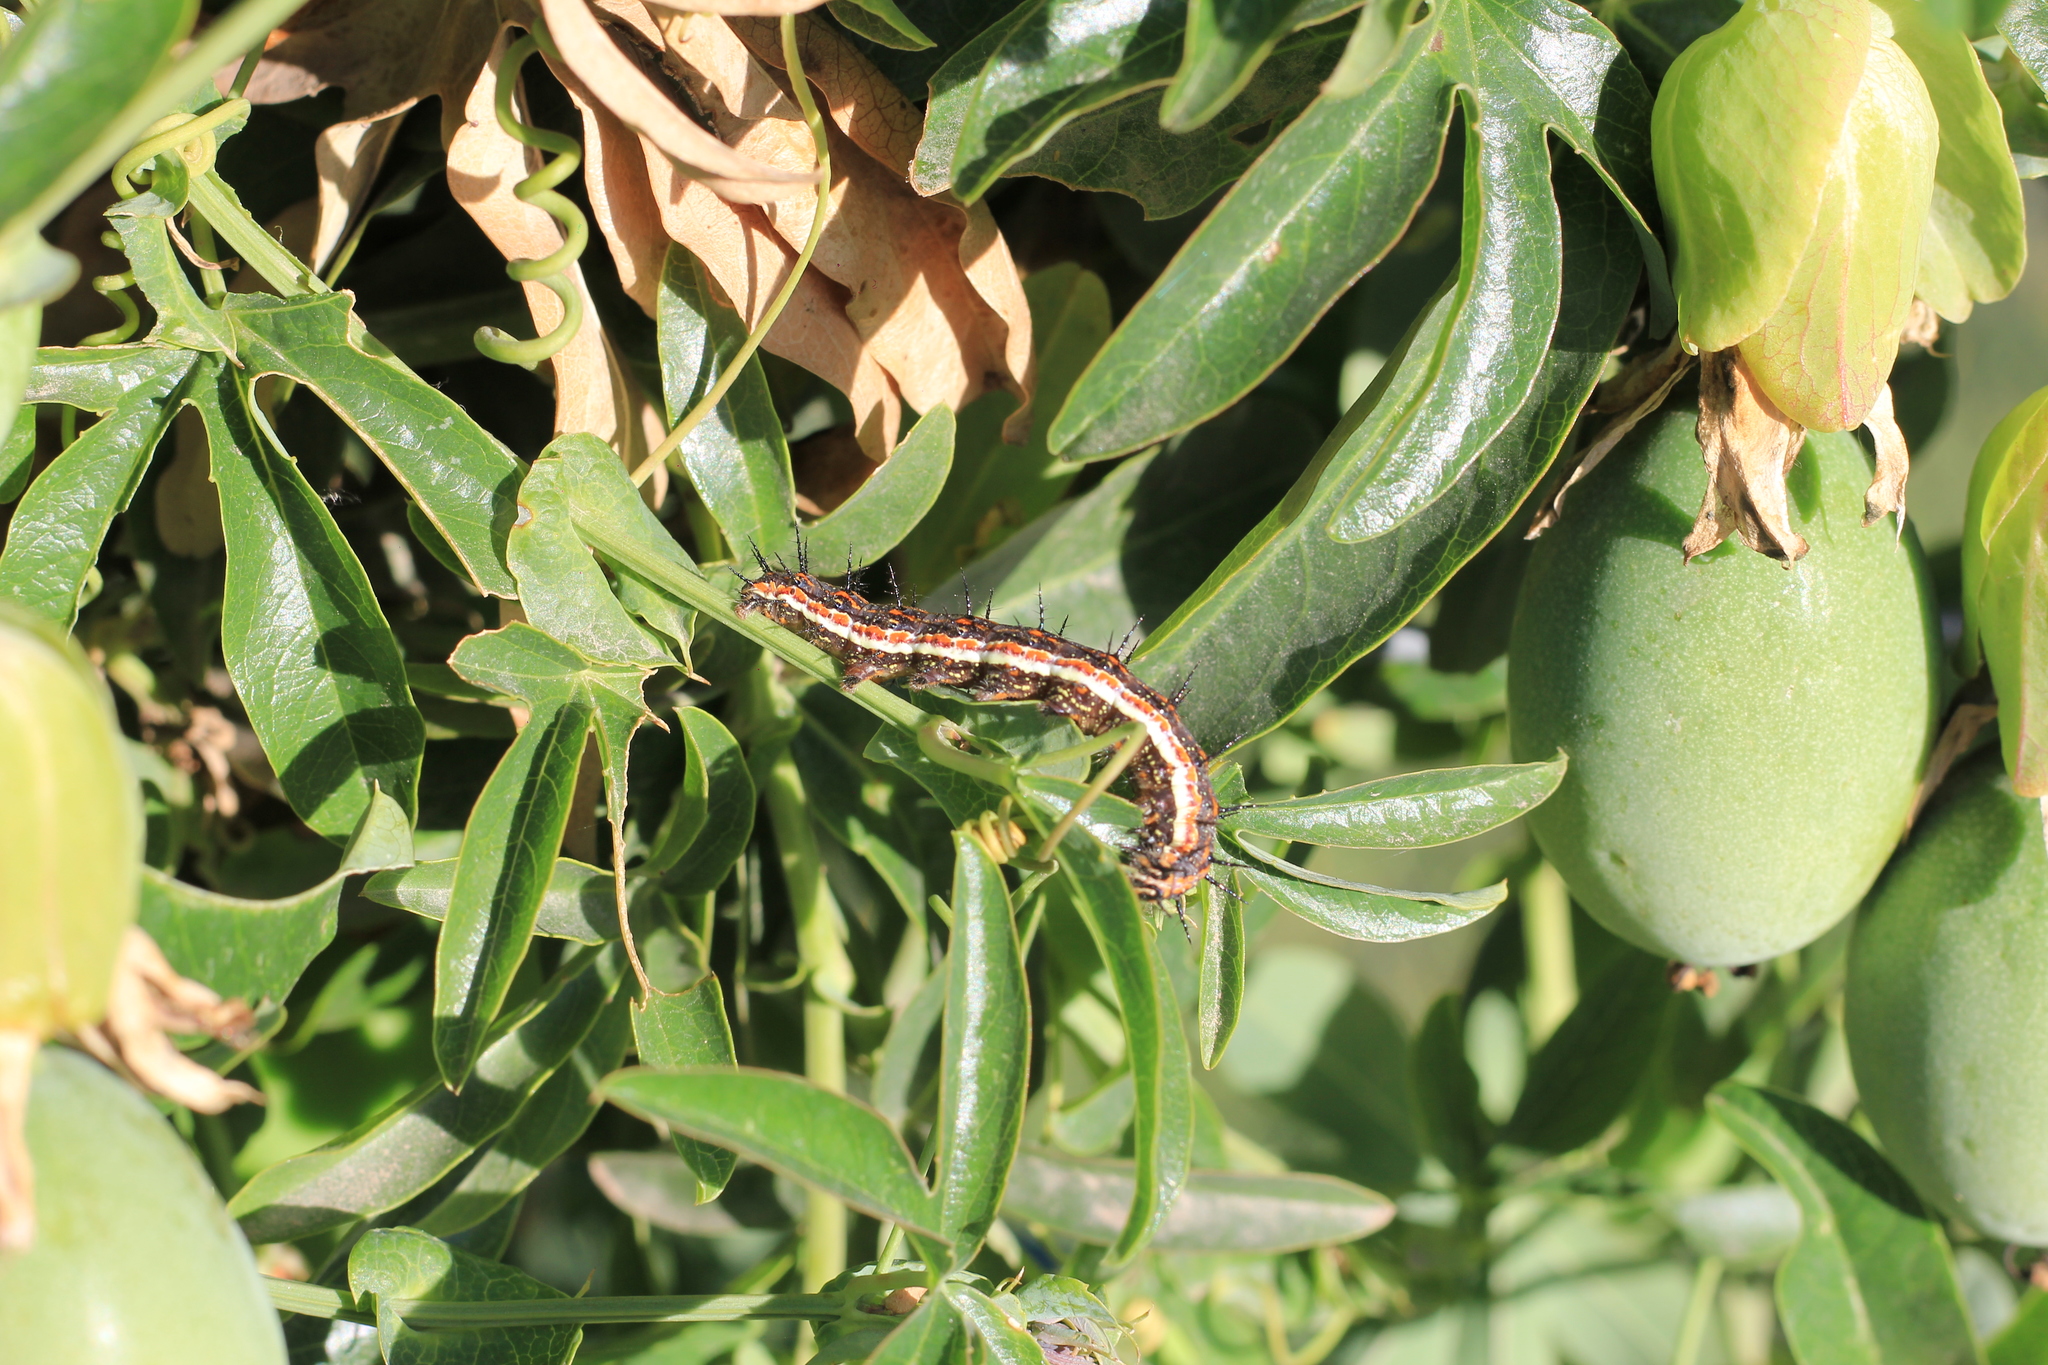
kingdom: Animalia
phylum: Arthropoda
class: Insecta
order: Lepidoptera
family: Nymphalidae
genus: Dione
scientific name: Dione vanillae
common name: Gulf fritillary
